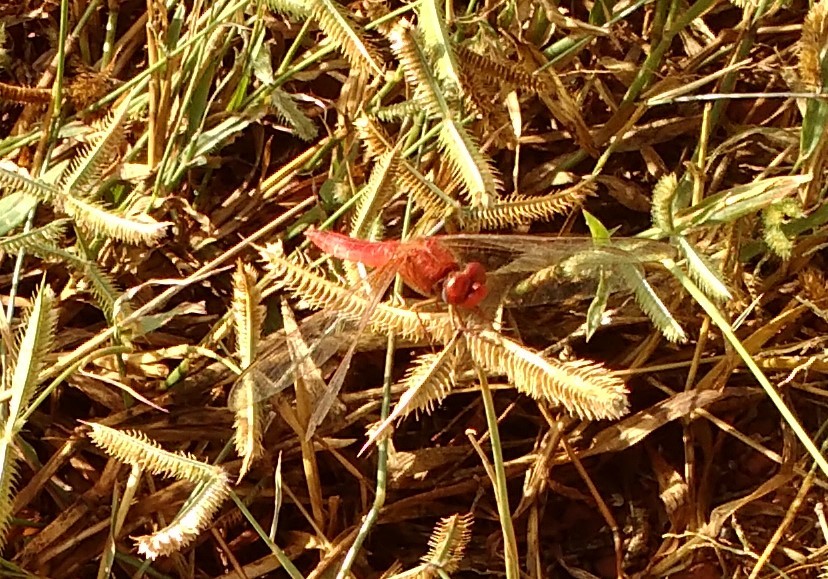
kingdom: Animalia
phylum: Arthropoda
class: Insecta
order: Odonata
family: Libellulidae
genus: Crocothemis
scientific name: Crocothemis erythraea
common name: Scarlet dragonfly
